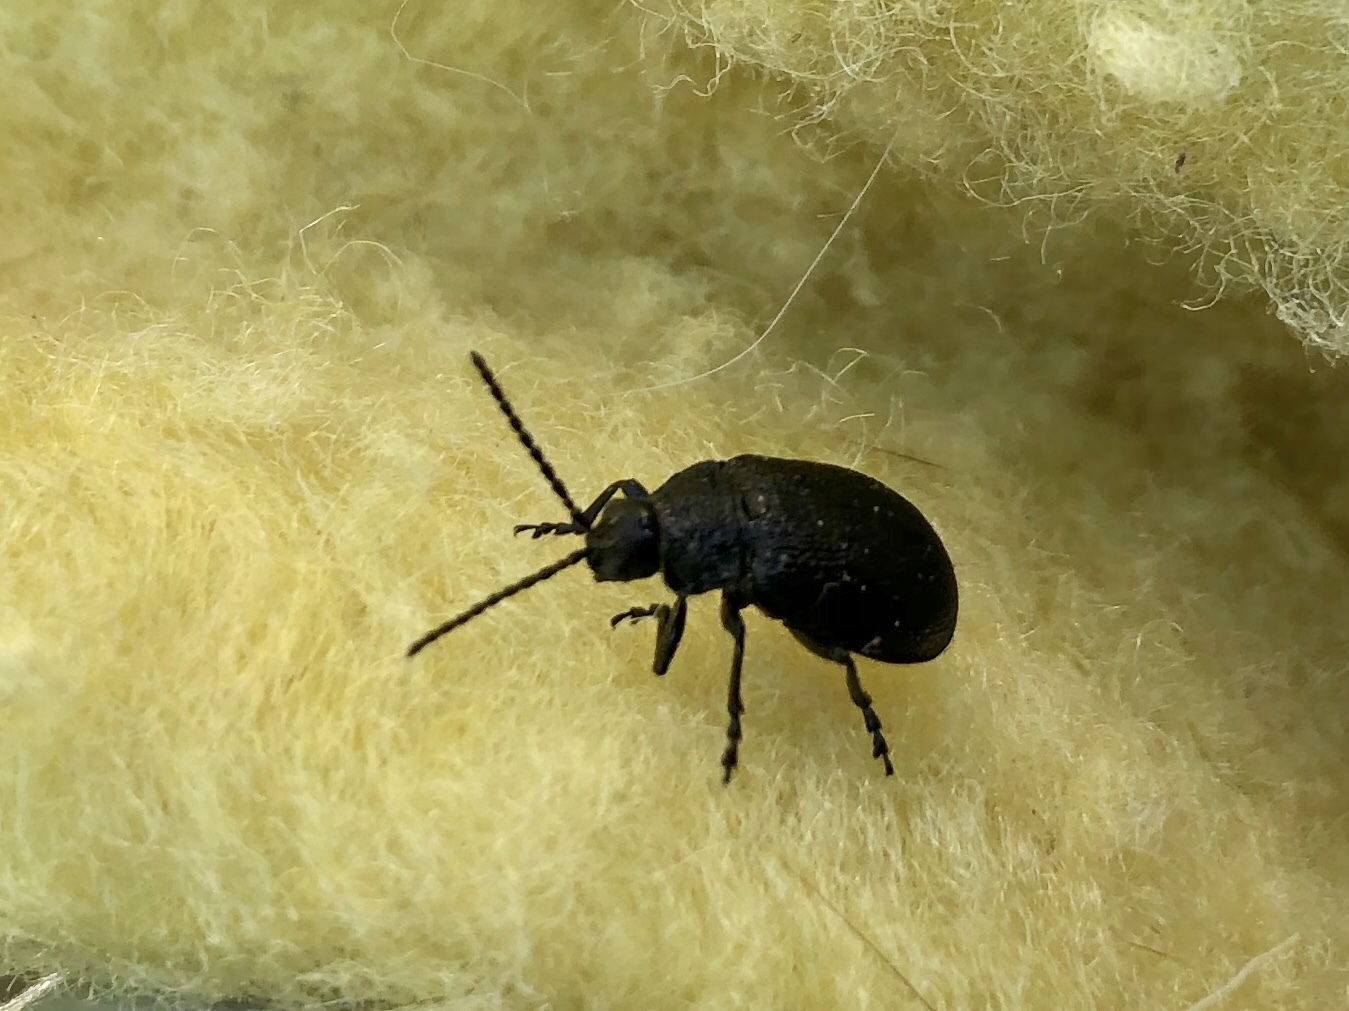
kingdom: Animalia
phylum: Arthropoda
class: Insecta
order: Coleoptera
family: Chrysomelidae
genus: Galeruca
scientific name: Galeruca tanaceti
